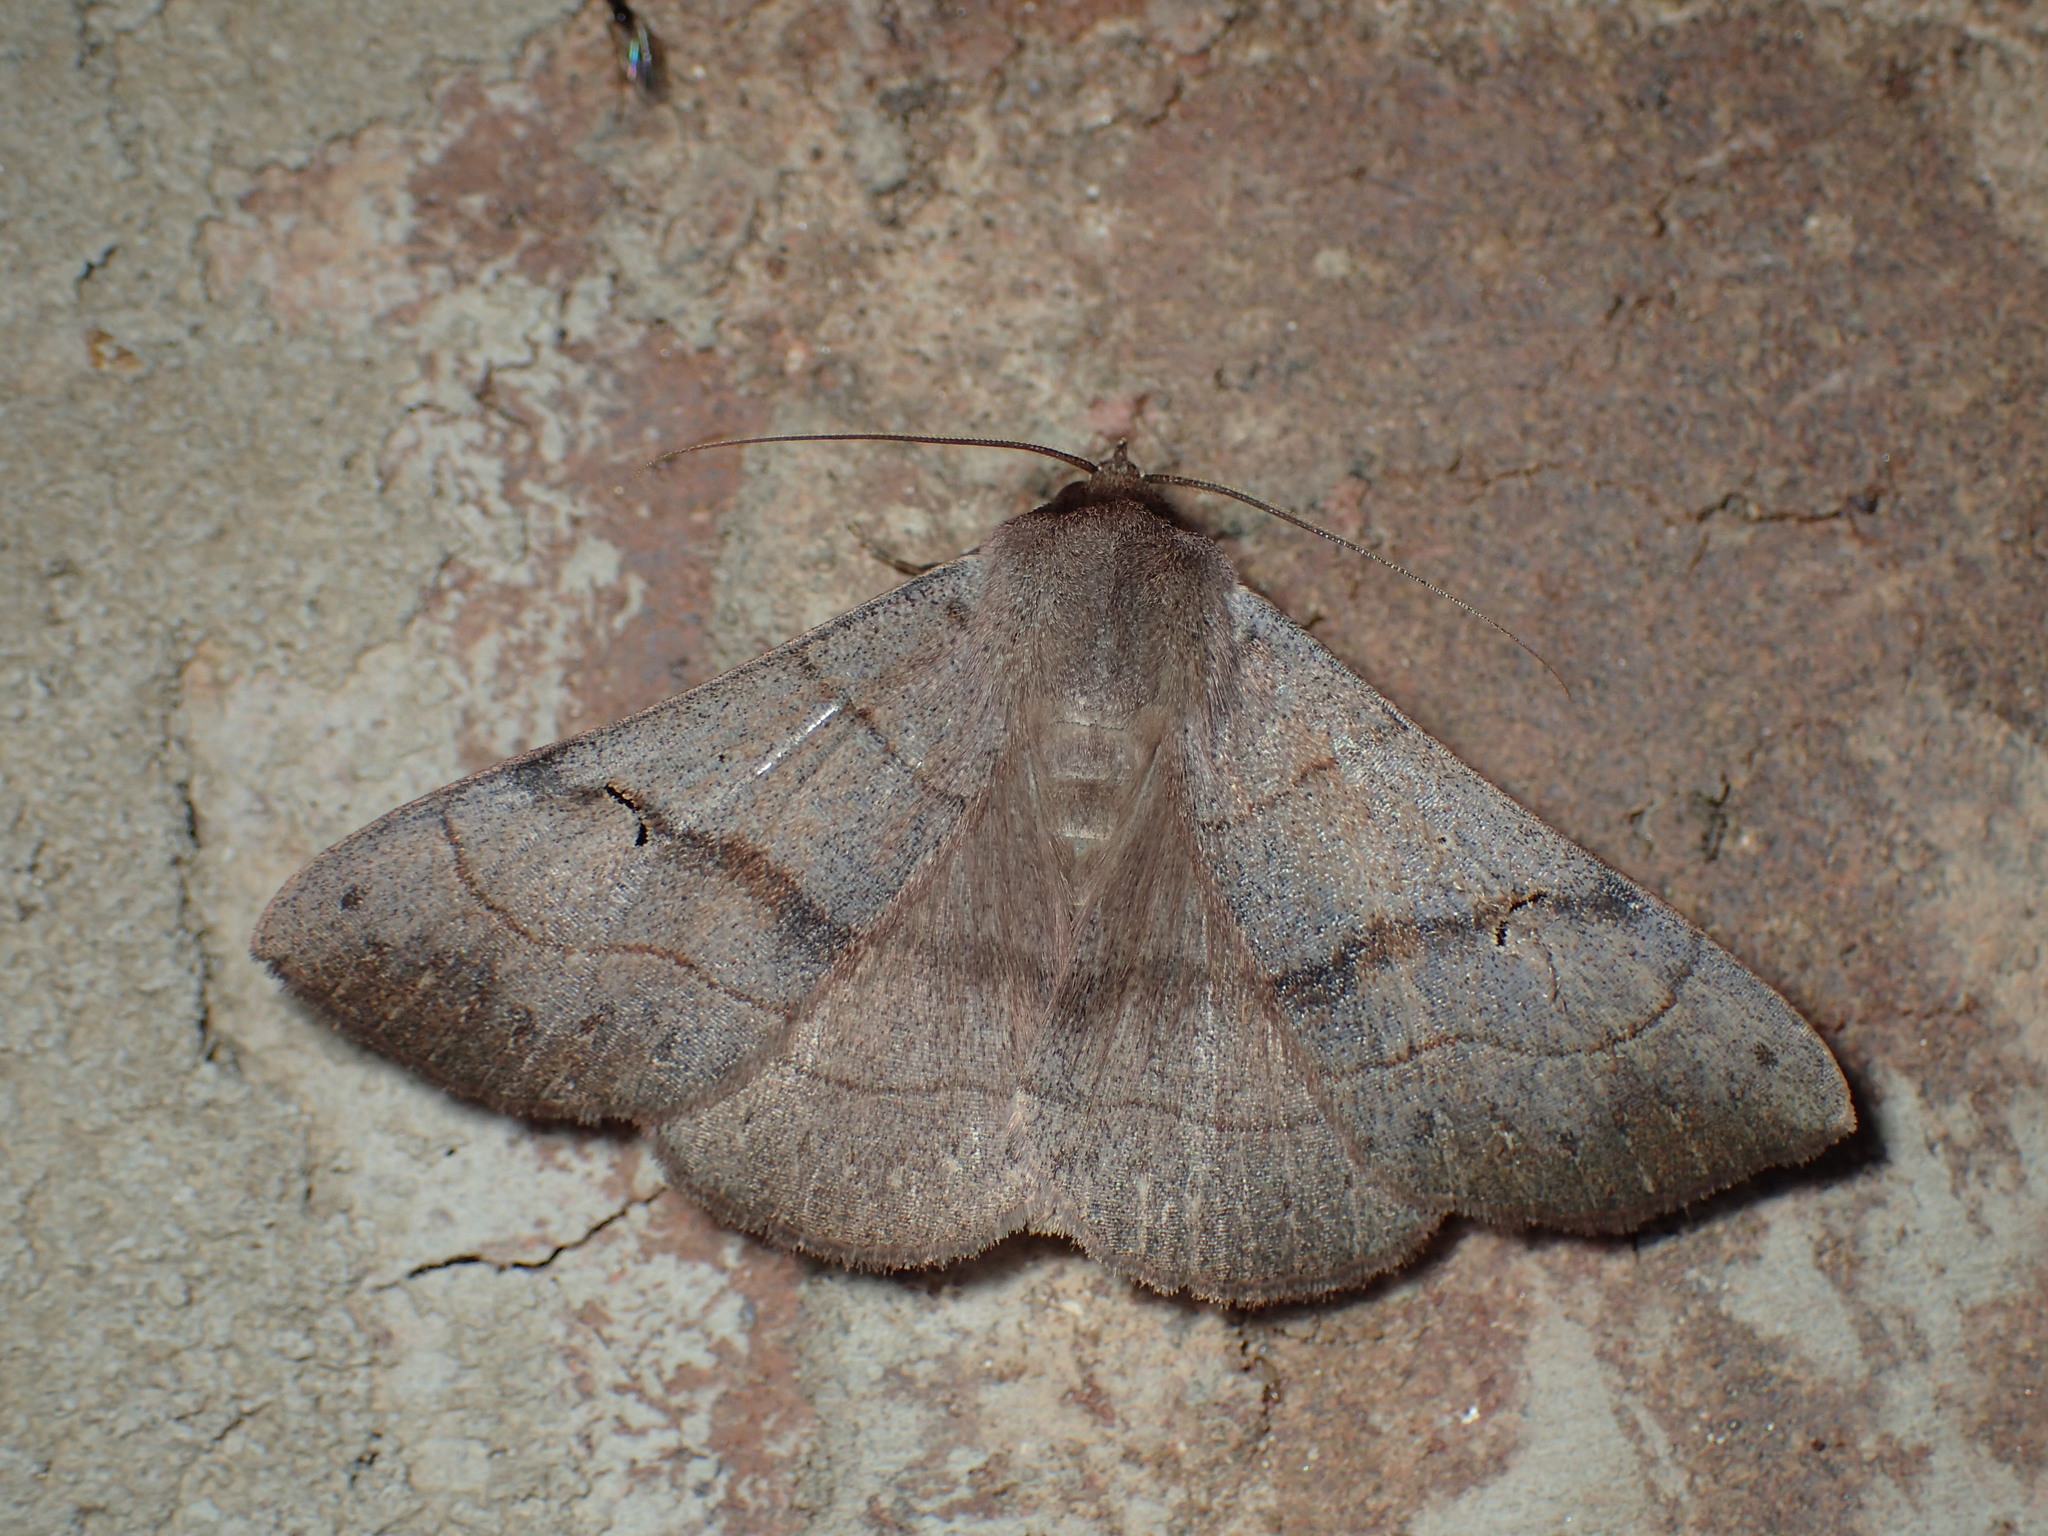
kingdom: Animalia
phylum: Arthropoda
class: Insecta
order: Lepidoptera
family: Erebidae
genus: Panopoda
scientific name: Panopoda carneicosta
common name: Brown panopoda moth
